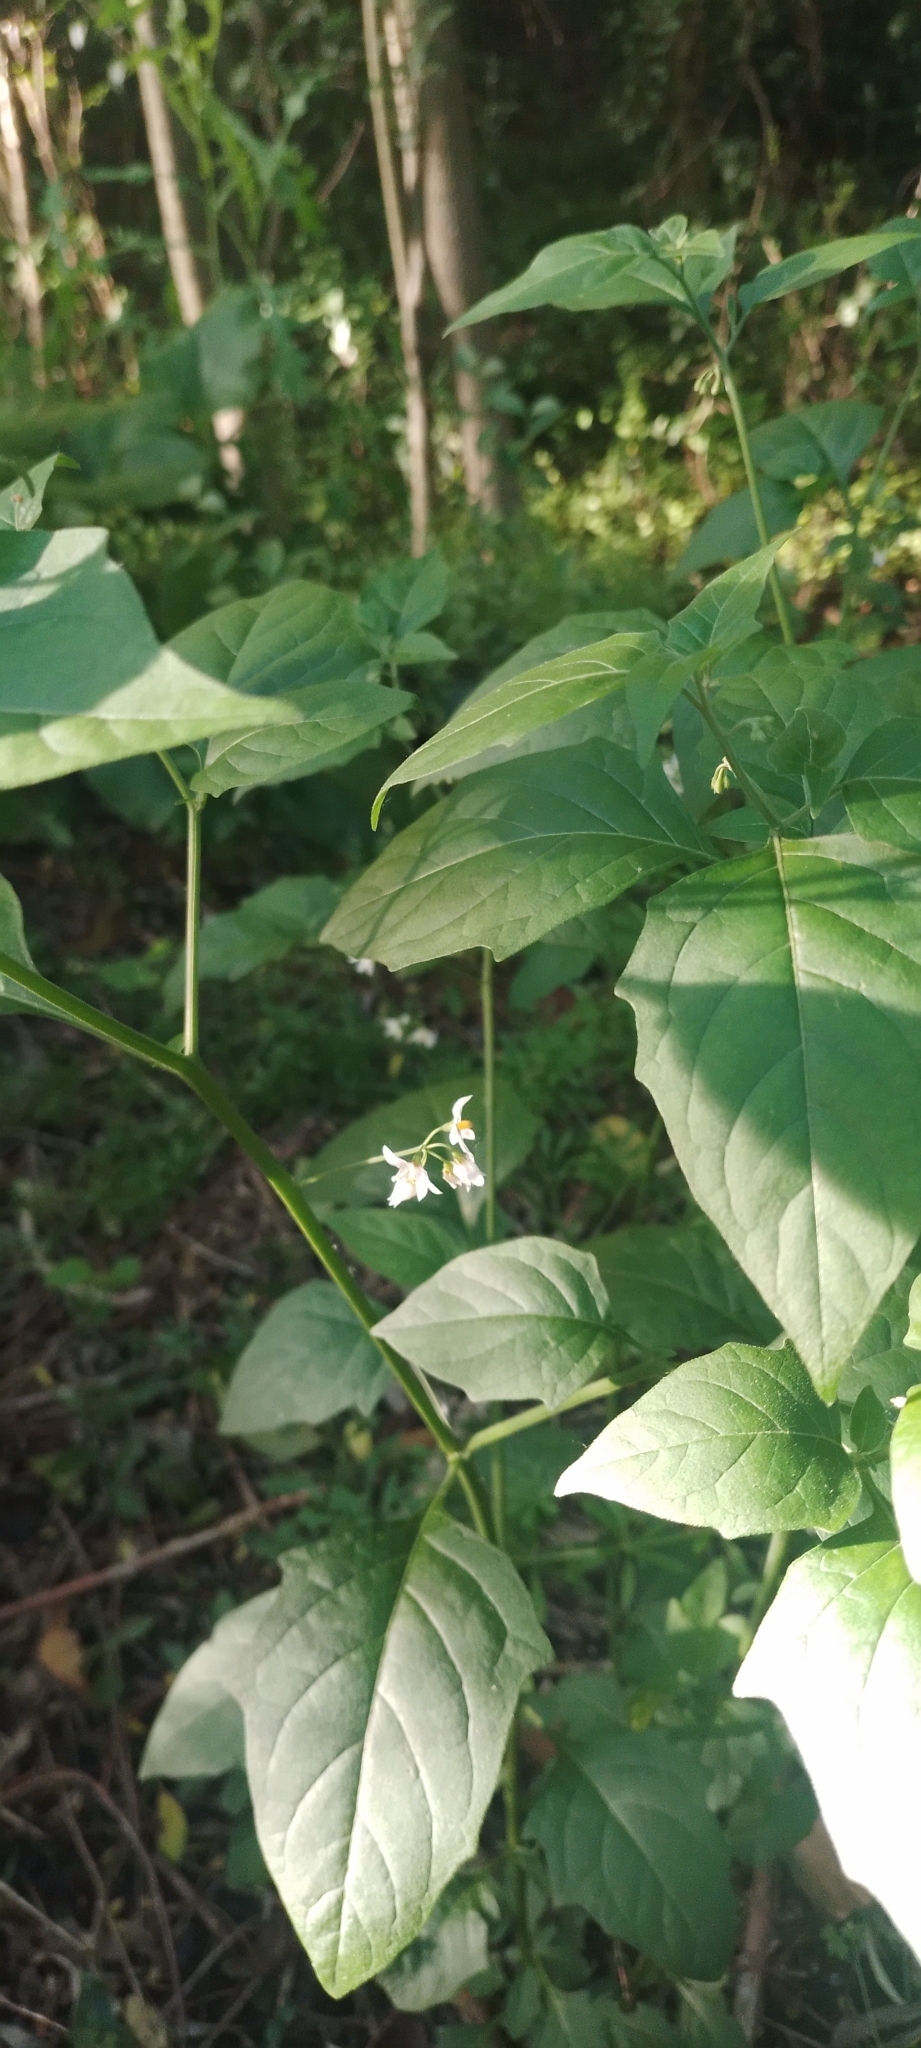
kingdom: Plantae
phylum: Tracheophyta
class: Magnoliopsida
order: Solanales
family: Solanaceae
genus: Solanum
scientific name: Solanum americanum
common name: American black nightshade
